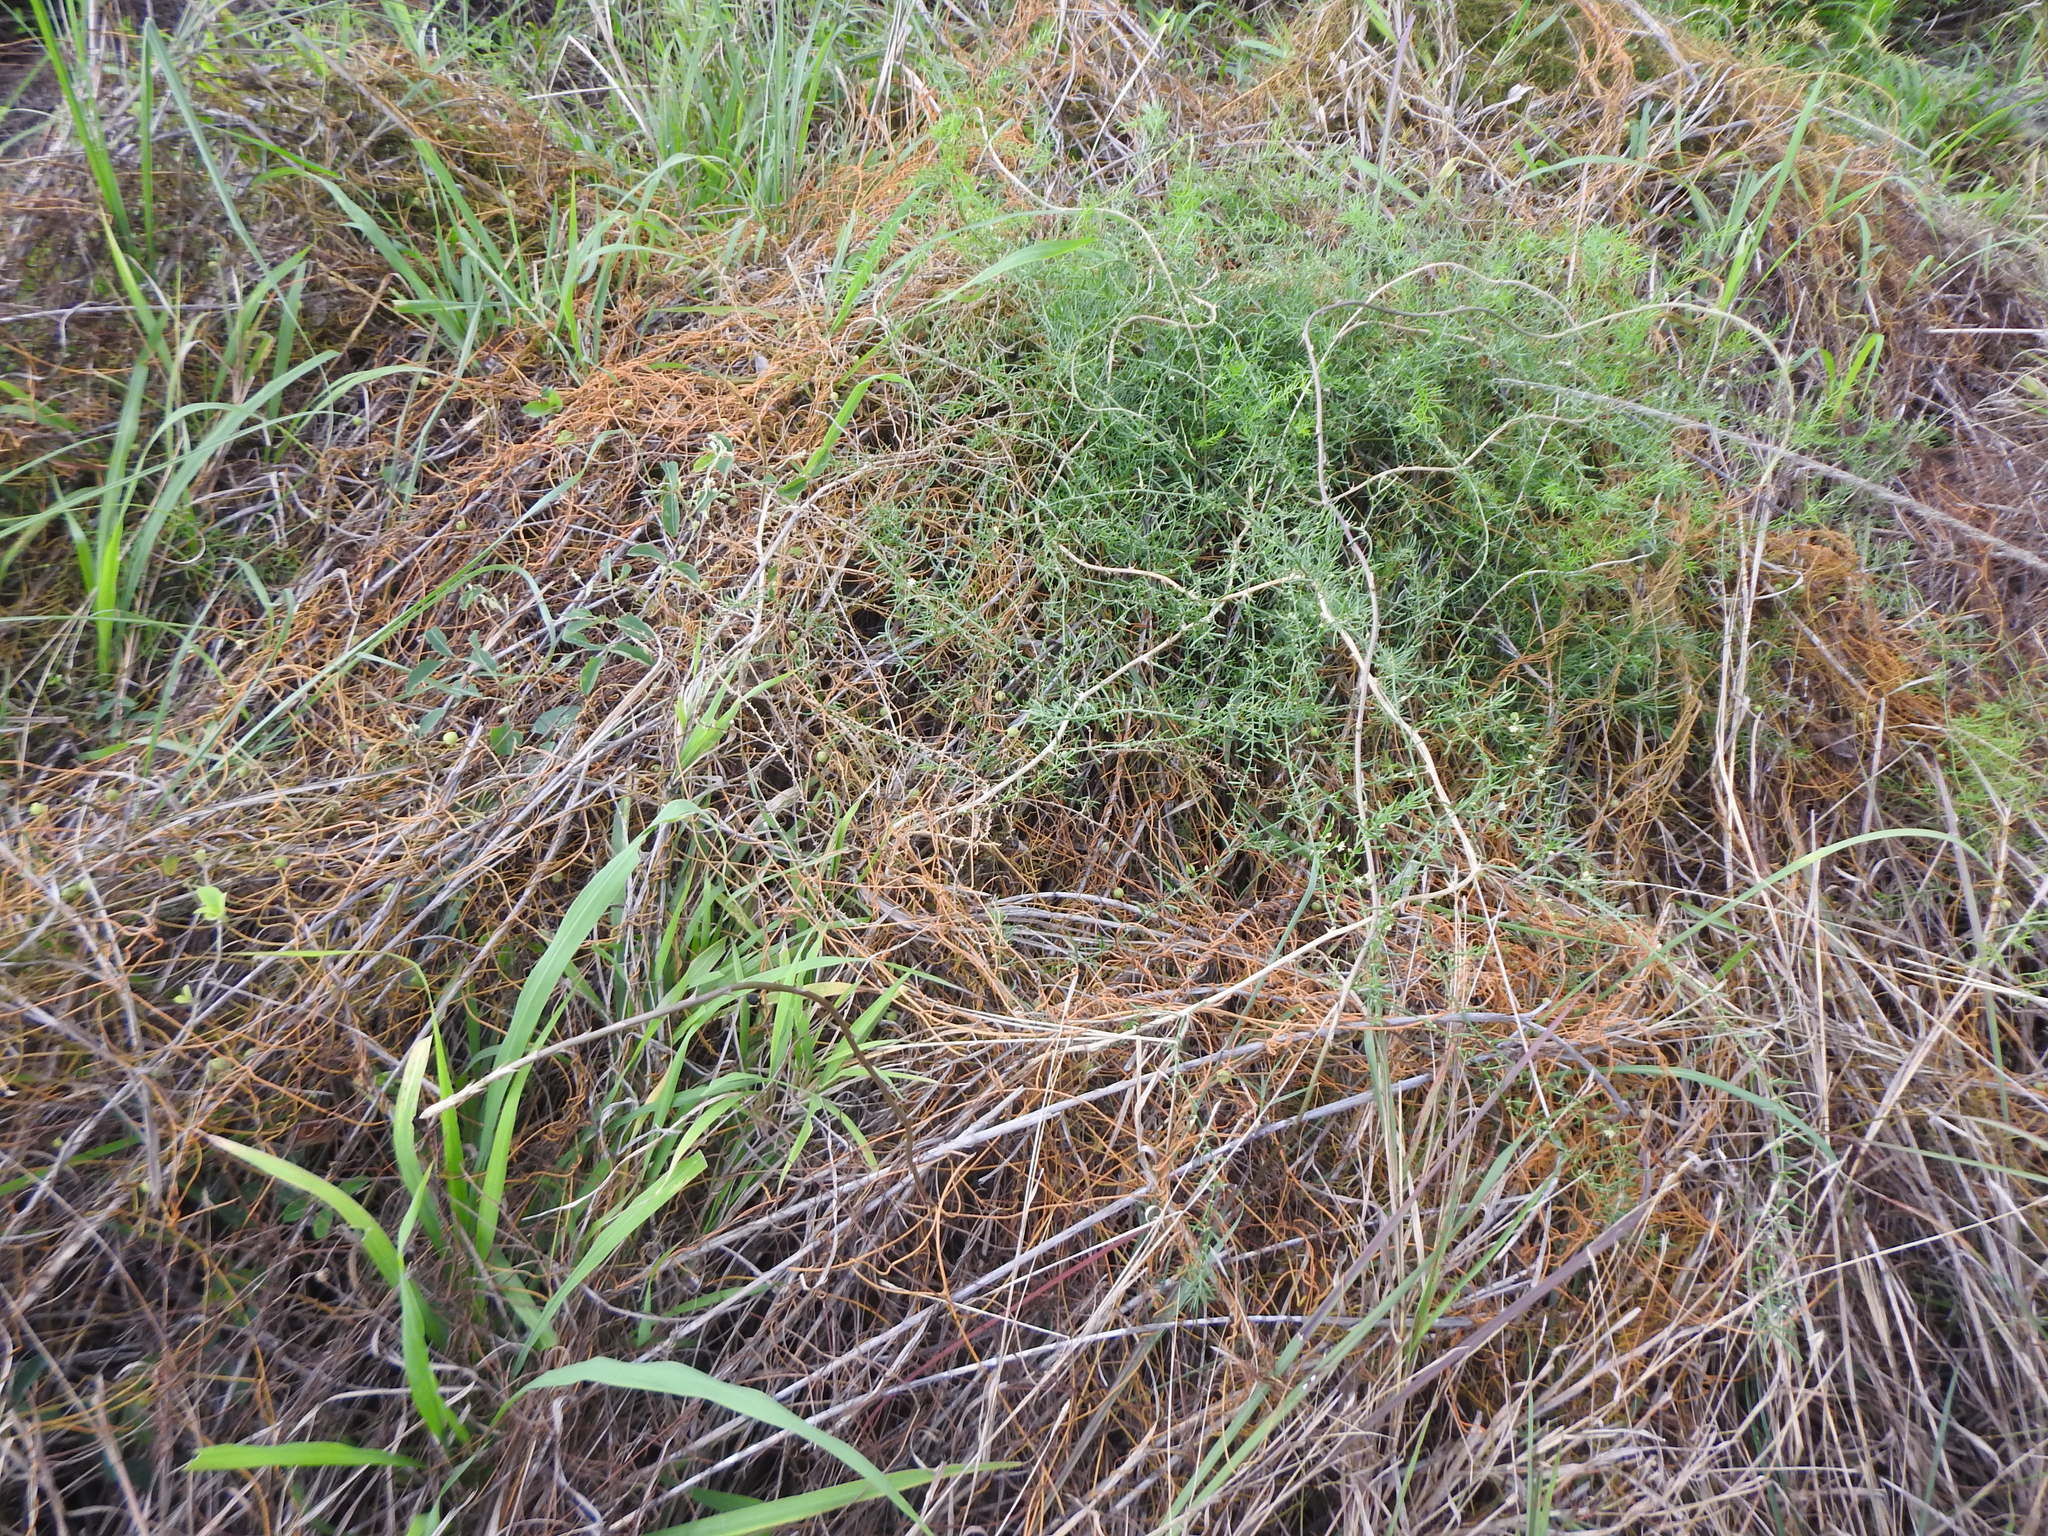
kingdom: Plantae
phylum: Tracheophyta
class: Magnoliopsida
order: Laurales
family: Lauraceae
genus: Cassytha
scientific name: Cassytha filiformis
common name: Dodder-laurel
